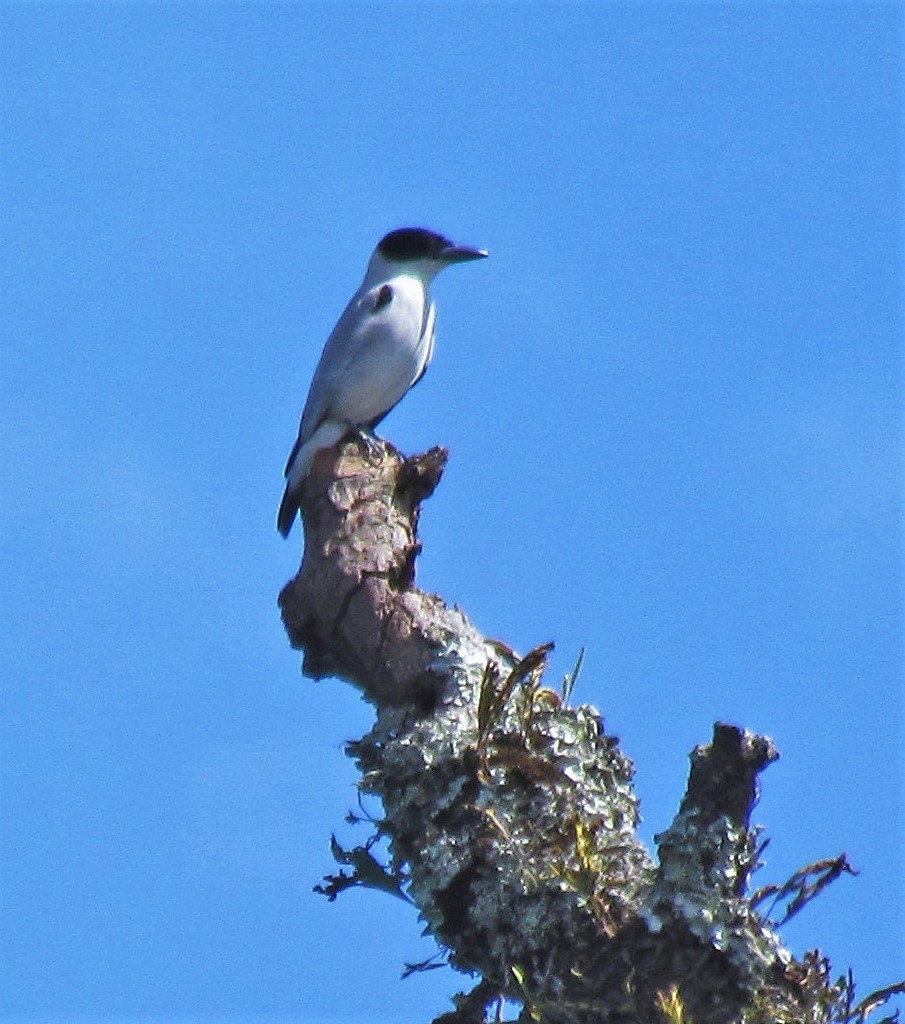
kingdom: Animalia
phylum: Chordata
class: Aves
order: Passeriformes
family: Cotingidae
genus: Tityra
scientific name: Tityra inquisitor
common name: Black-crowned tityra
